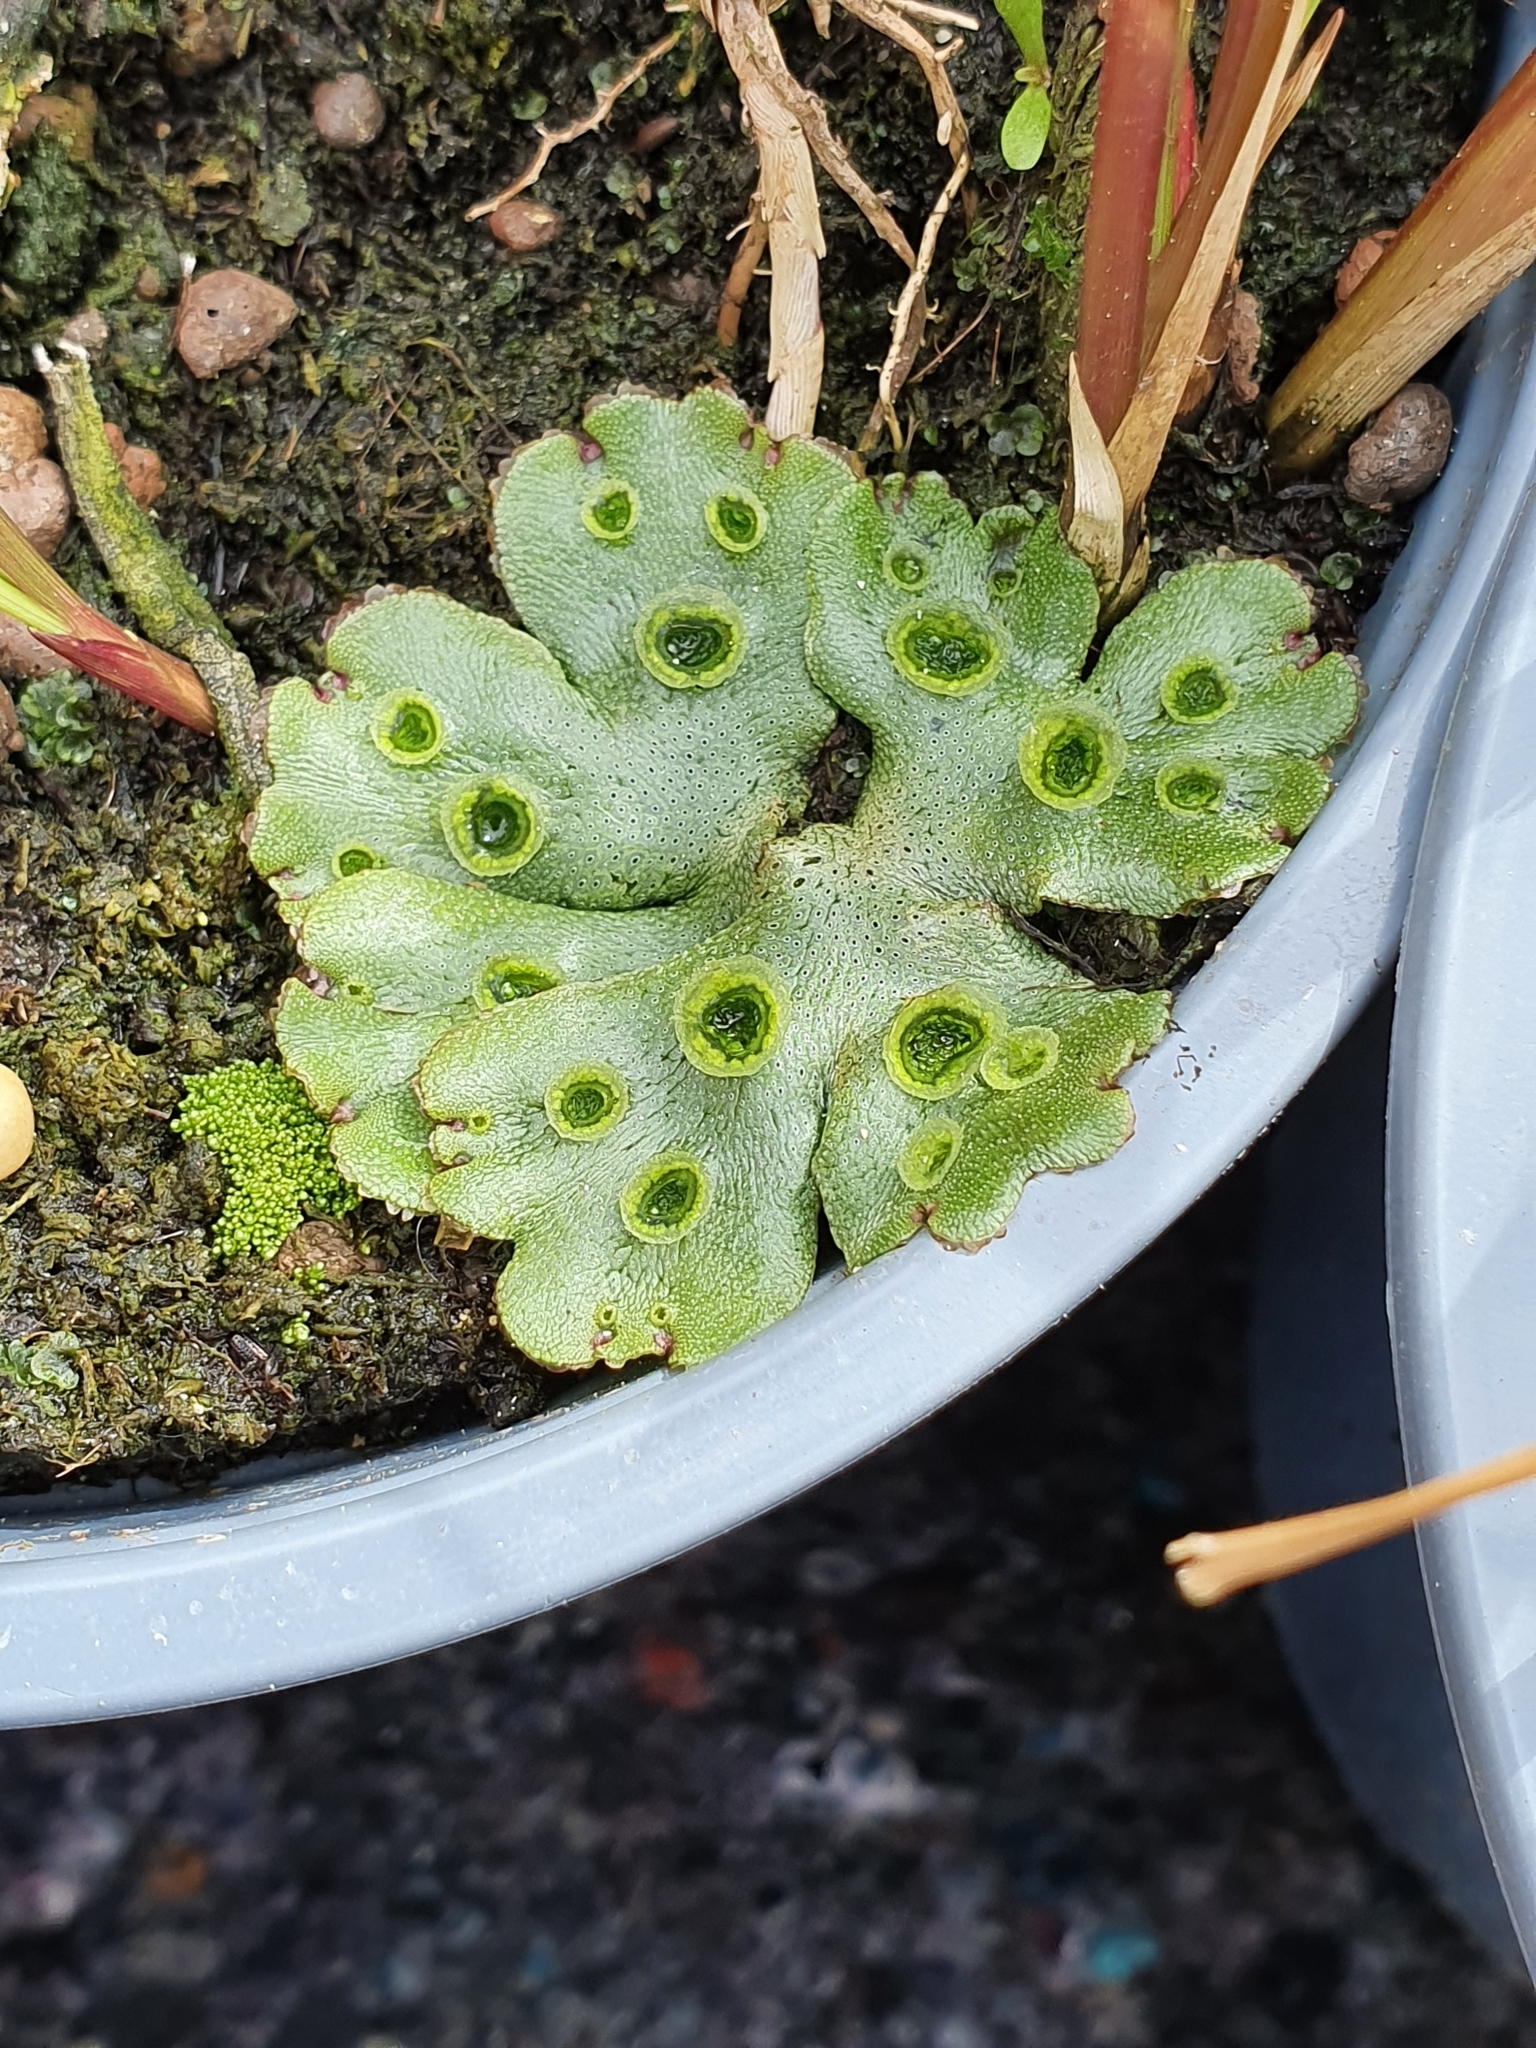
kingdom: Plantae
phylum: Marchantiophyta
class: Marchantiopsida
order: Marchantiales
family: Marchantiaceae
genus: Marchantia
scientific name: Marchantia polymorpha
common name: Common liverwort
